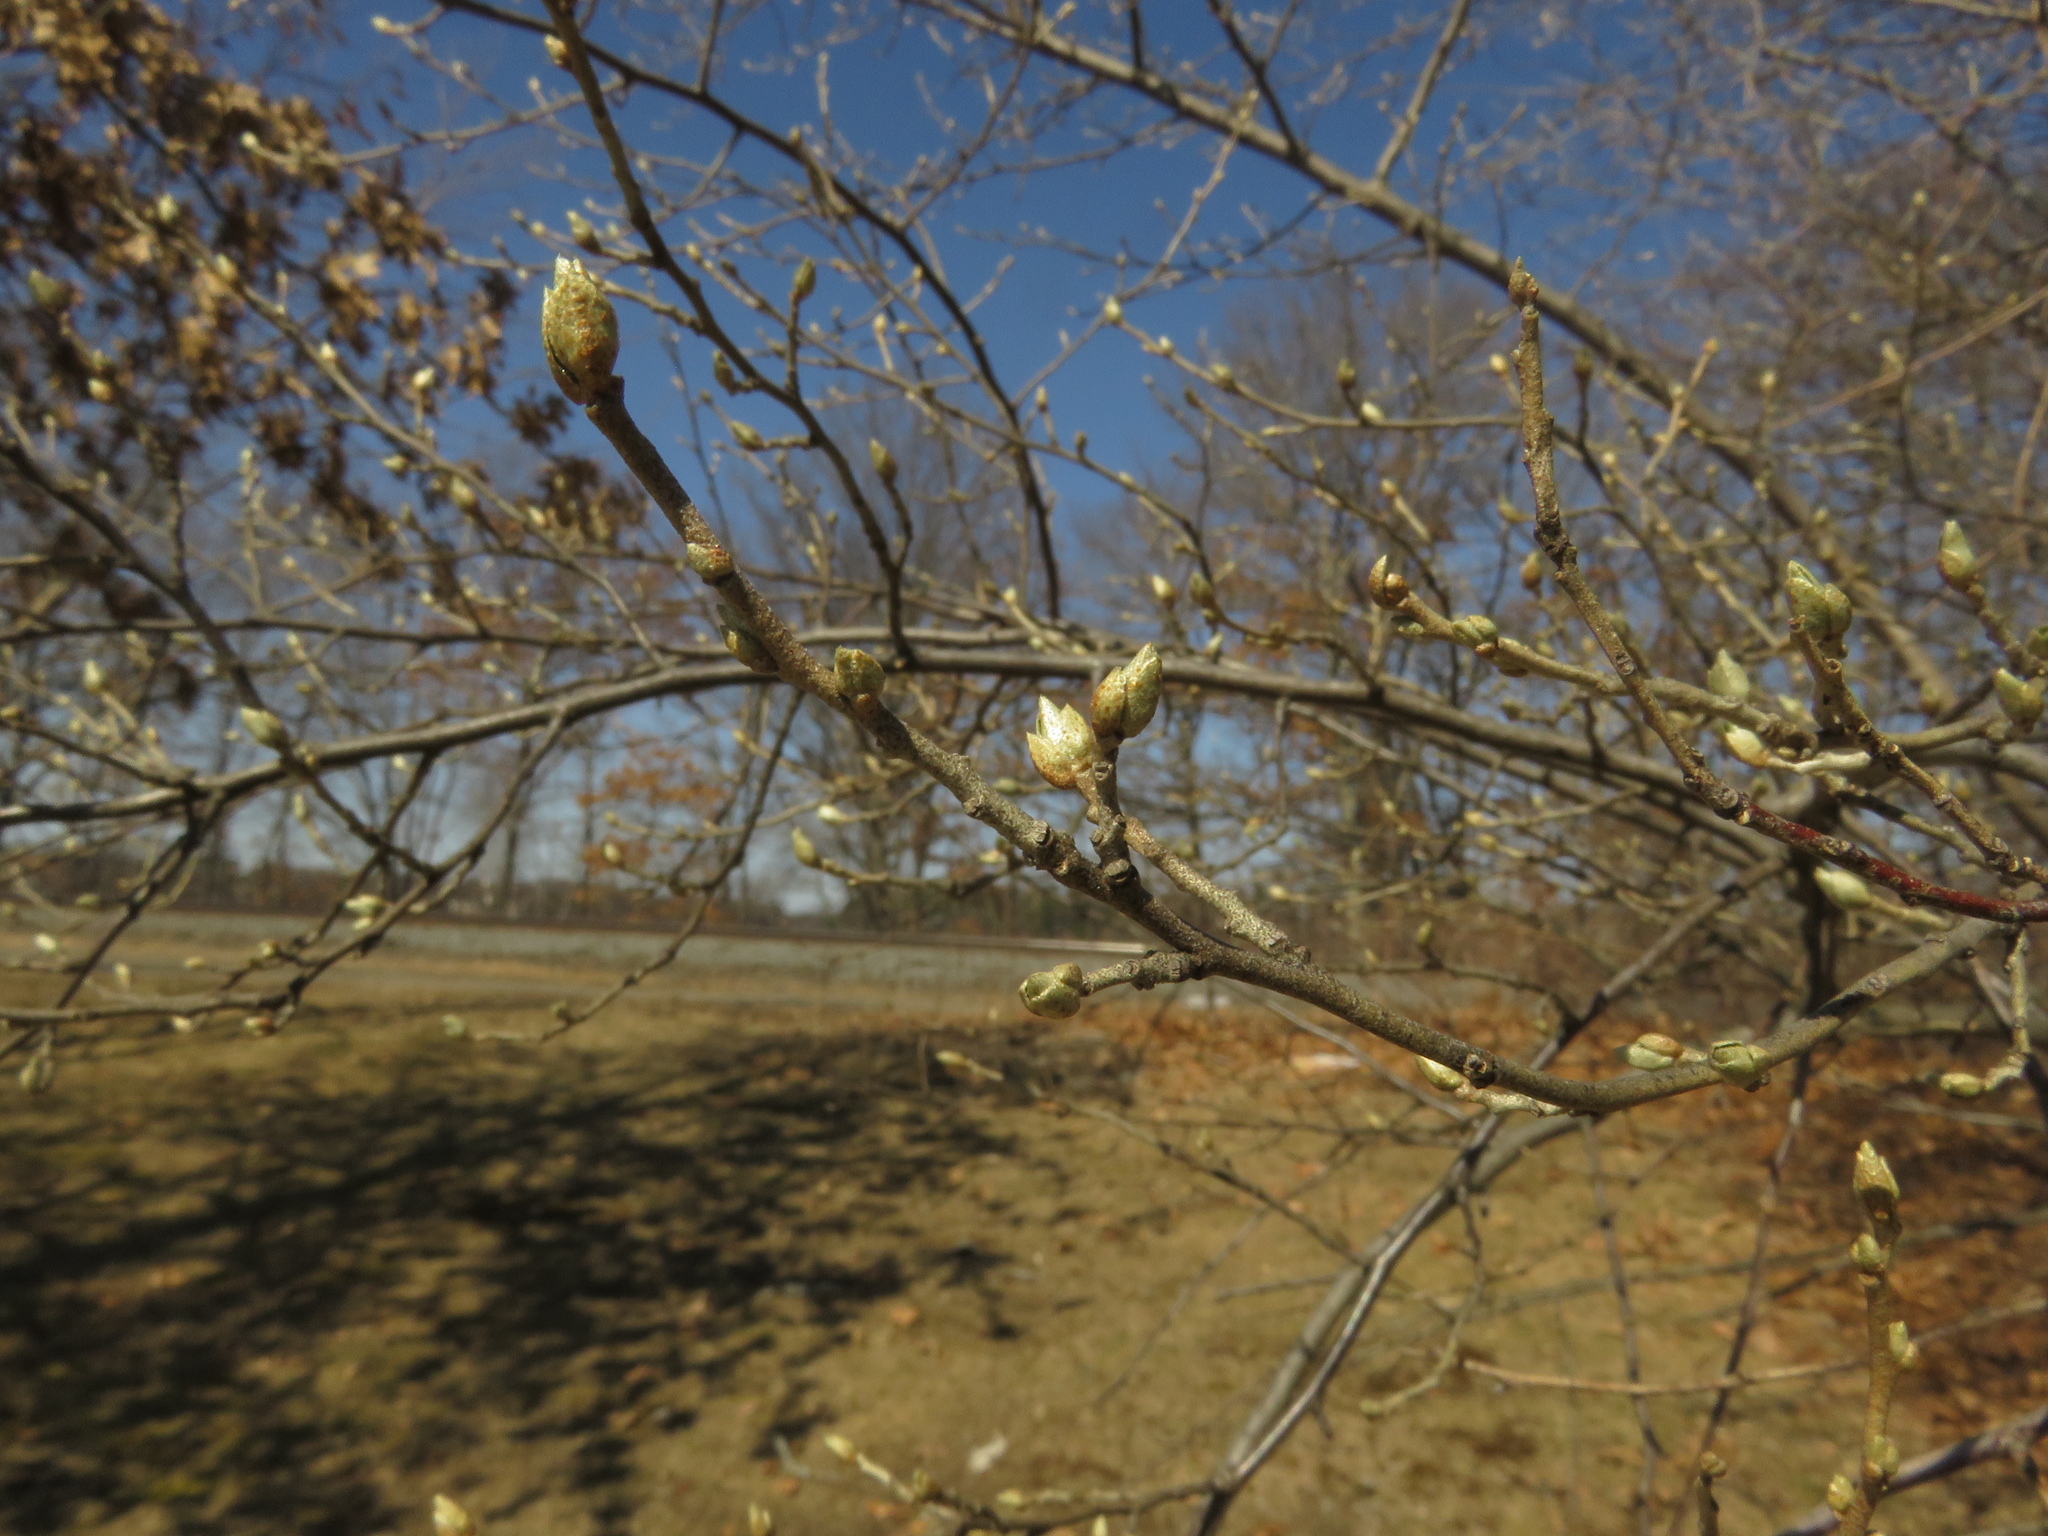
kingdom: Plantae
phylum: Tracheophyta
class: Magnoliopsida
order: Rosales
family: Elaeagnaceae
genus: Elaeagnus
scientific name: Elaeagnus umbellata
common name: Autumn olive
